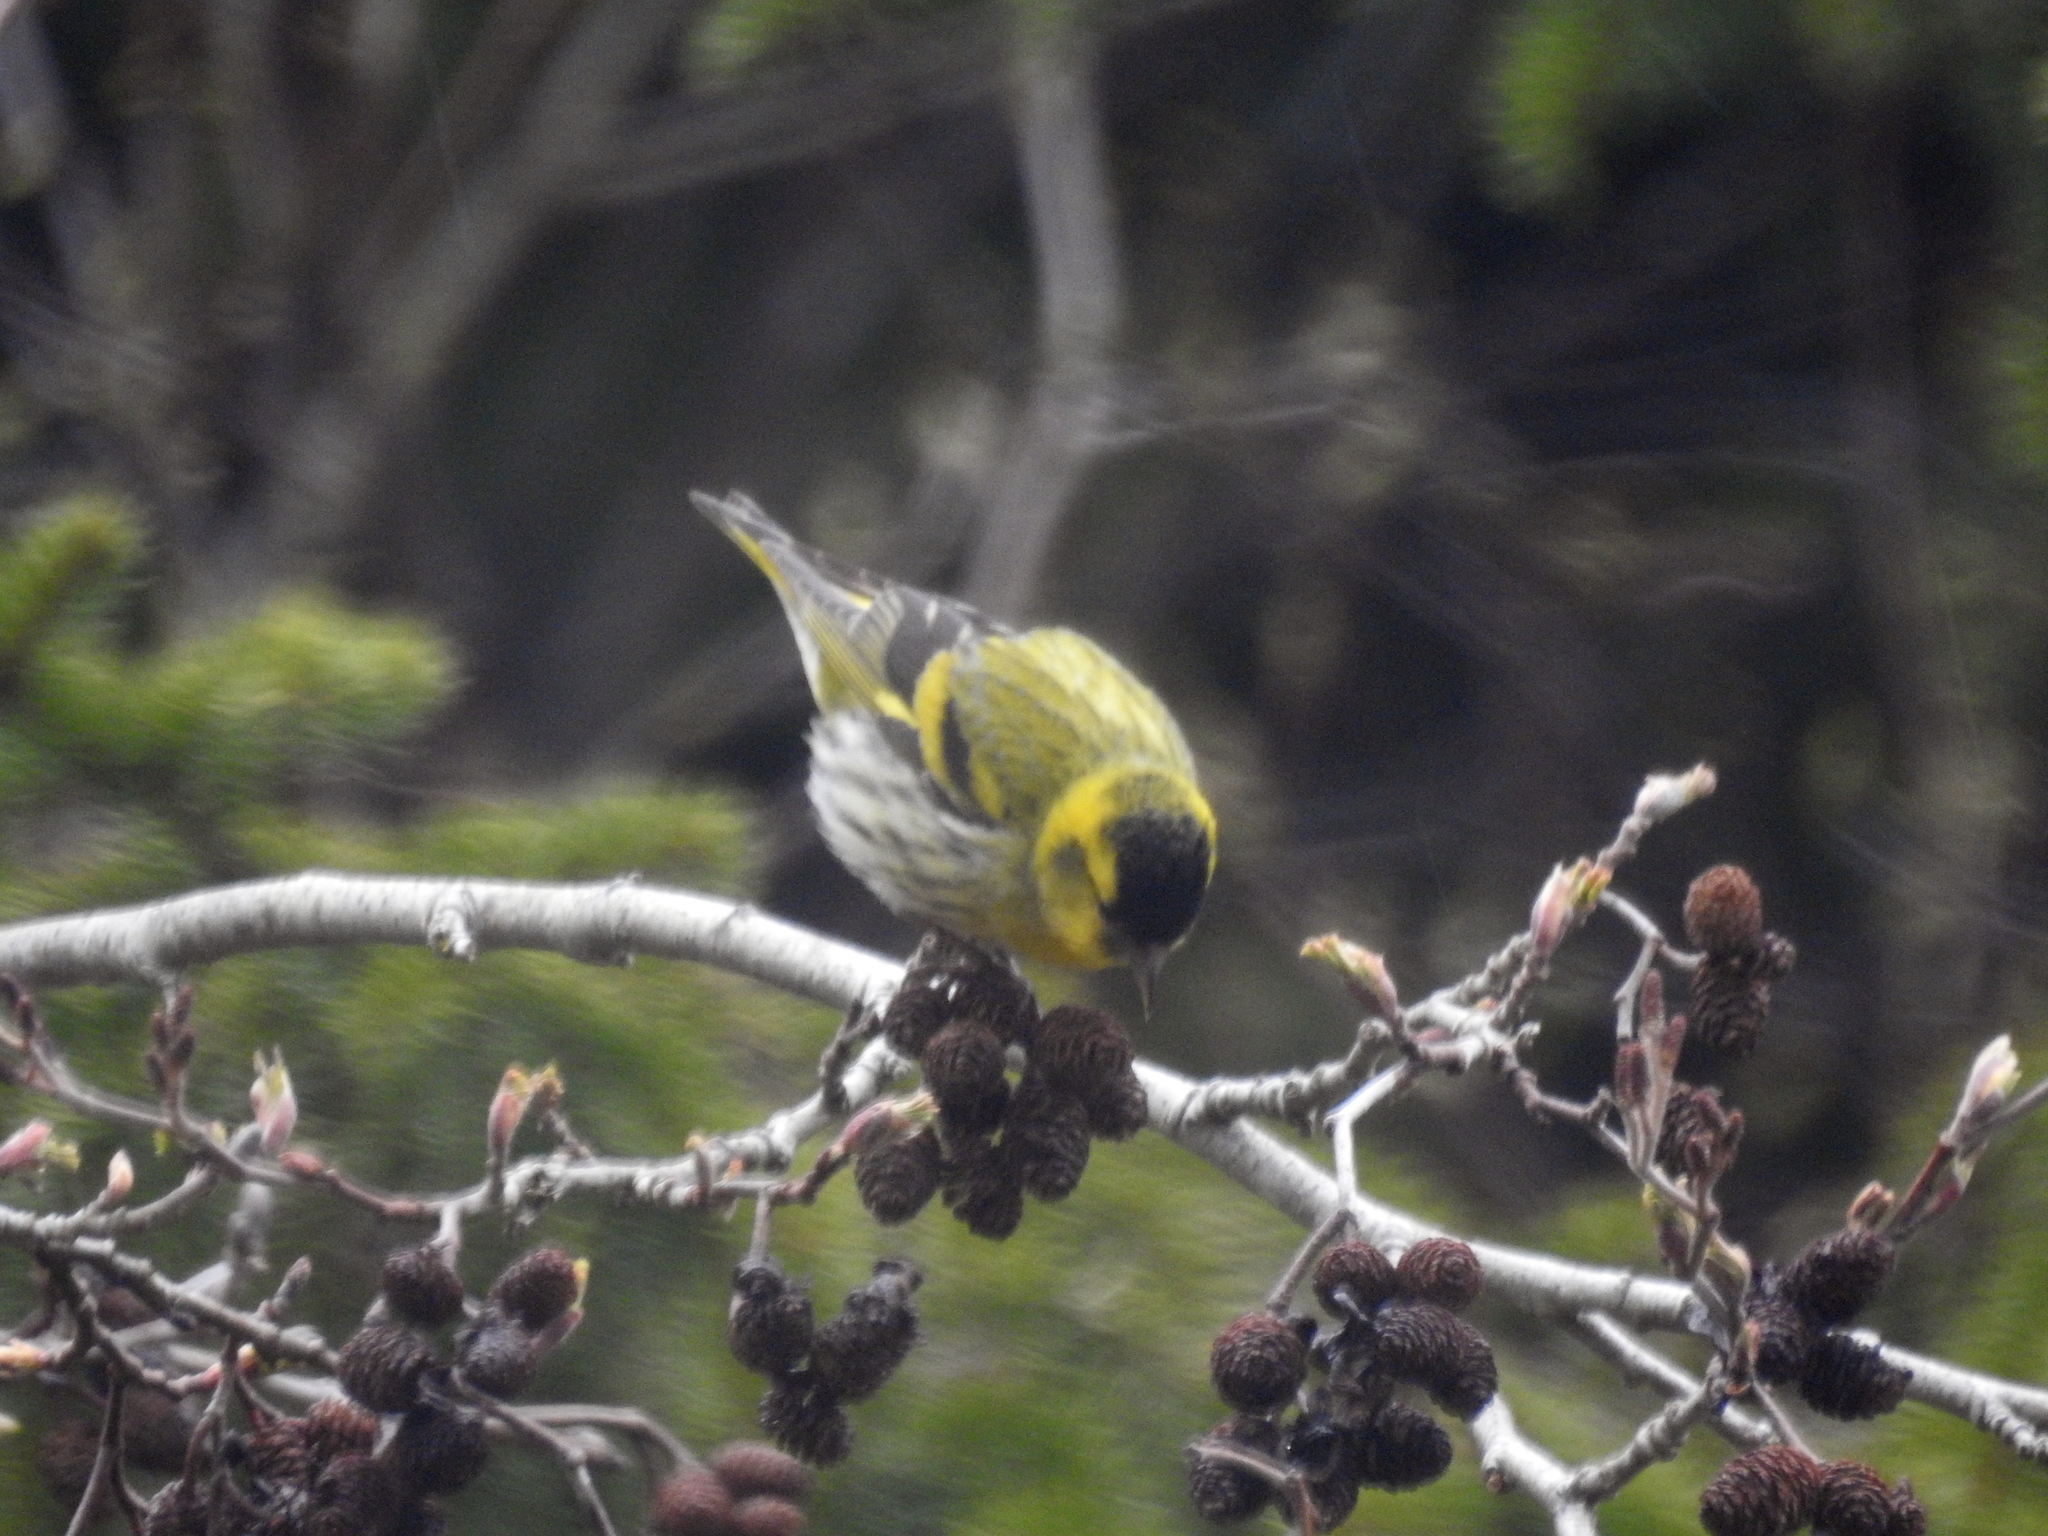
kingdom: Animalia
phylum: Chordata
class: Aves
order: Passeriformes
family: Fringillidae
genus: Spinus
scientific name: Spinus spinus
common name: Eurasian siskin
